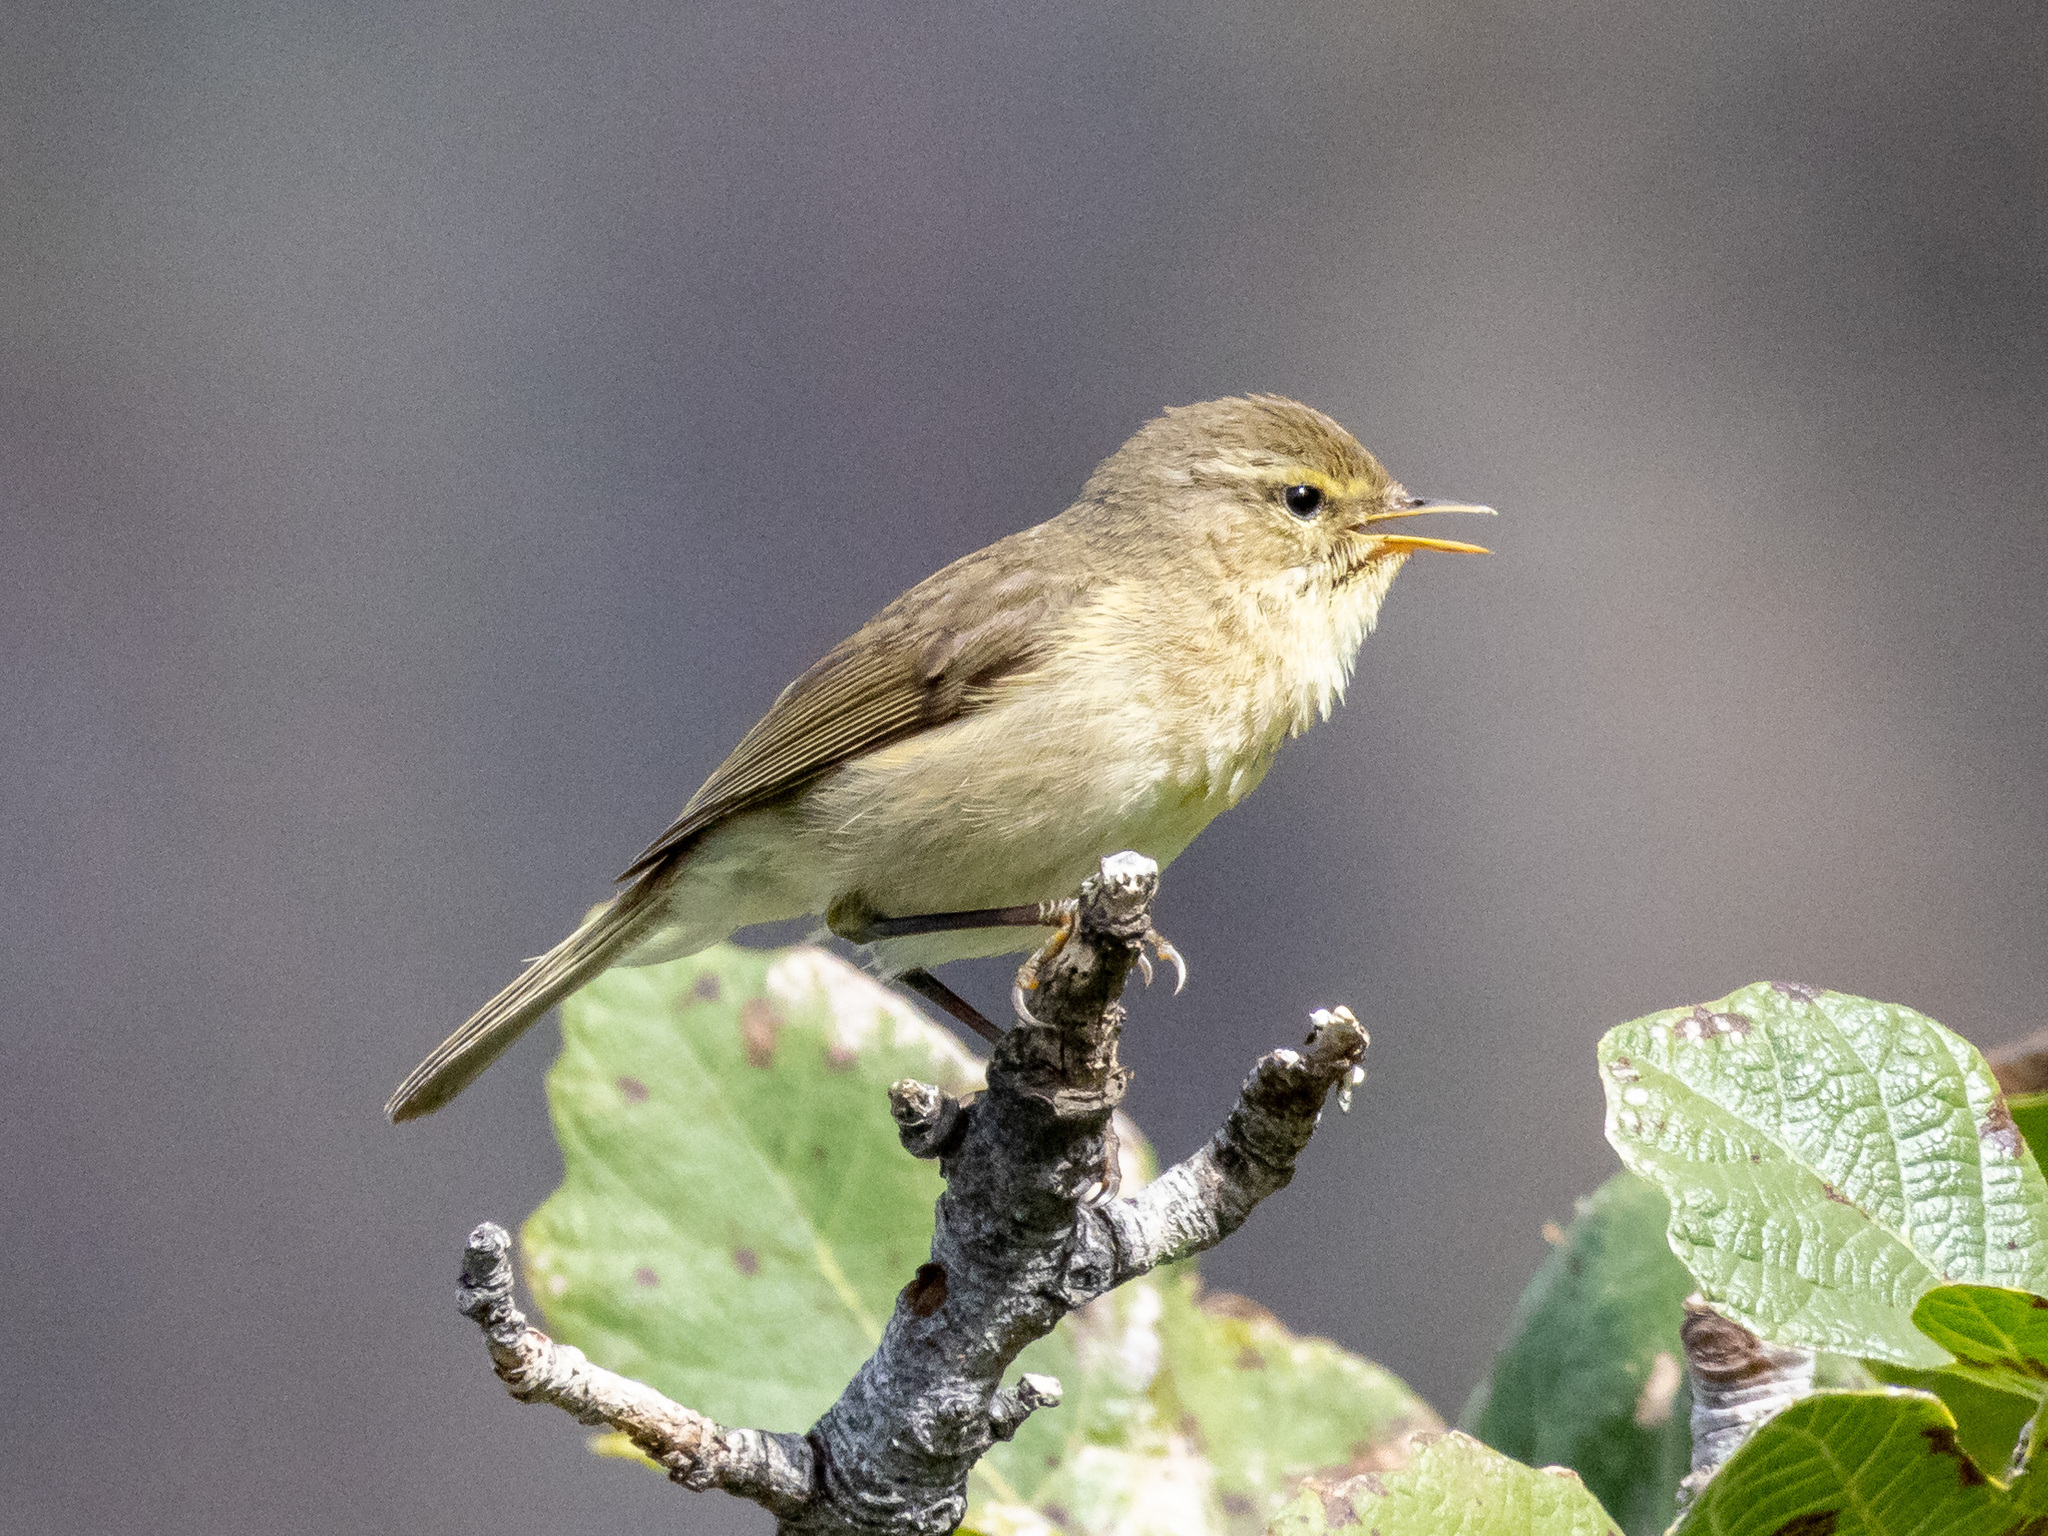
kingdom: Animalia
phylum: Chordata
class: Aves
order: Passeriformes
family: Phylloscopidae
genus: Phylloscopus
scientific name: Phylloscopus canariensis
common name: Canary islands chiffchaff
